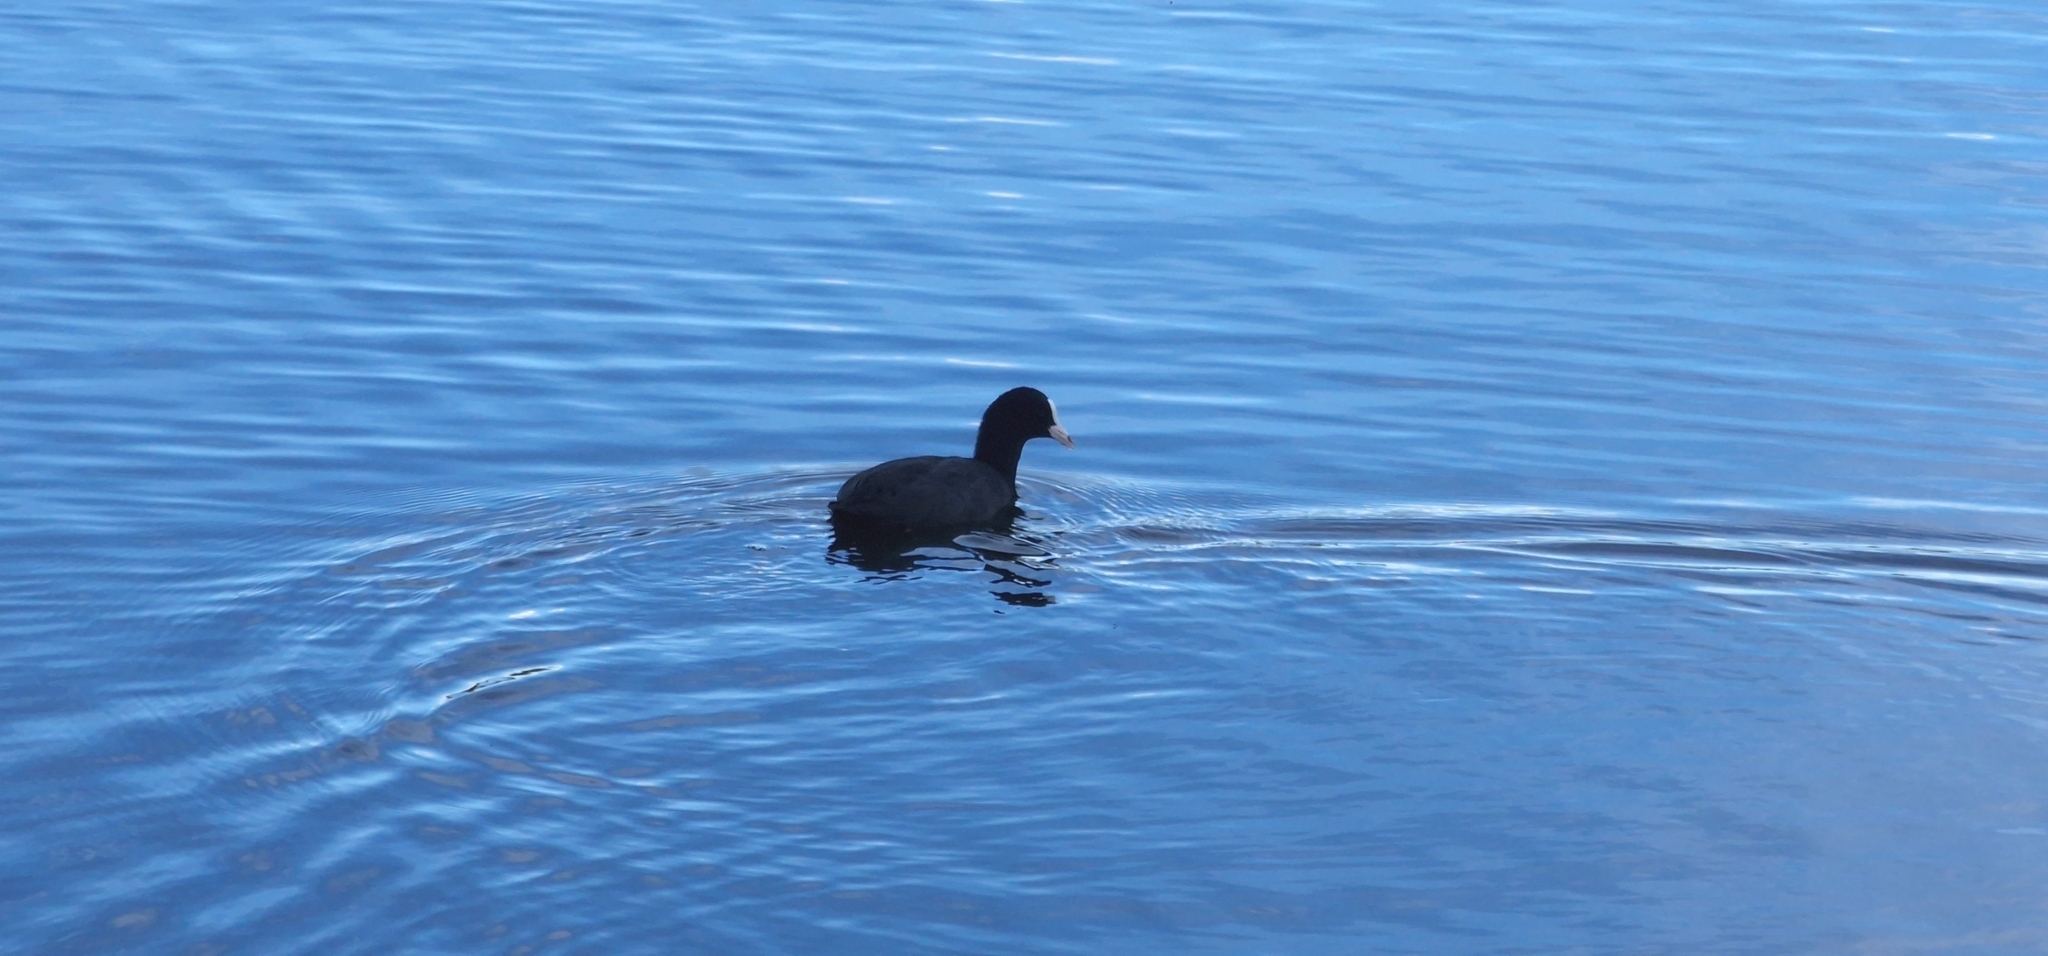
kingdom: Animalia
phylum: Chordata
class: Aves
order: Gruiformes
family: Rallidae
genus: Fulica
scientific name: Fulica atra
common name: Eurasian coot
